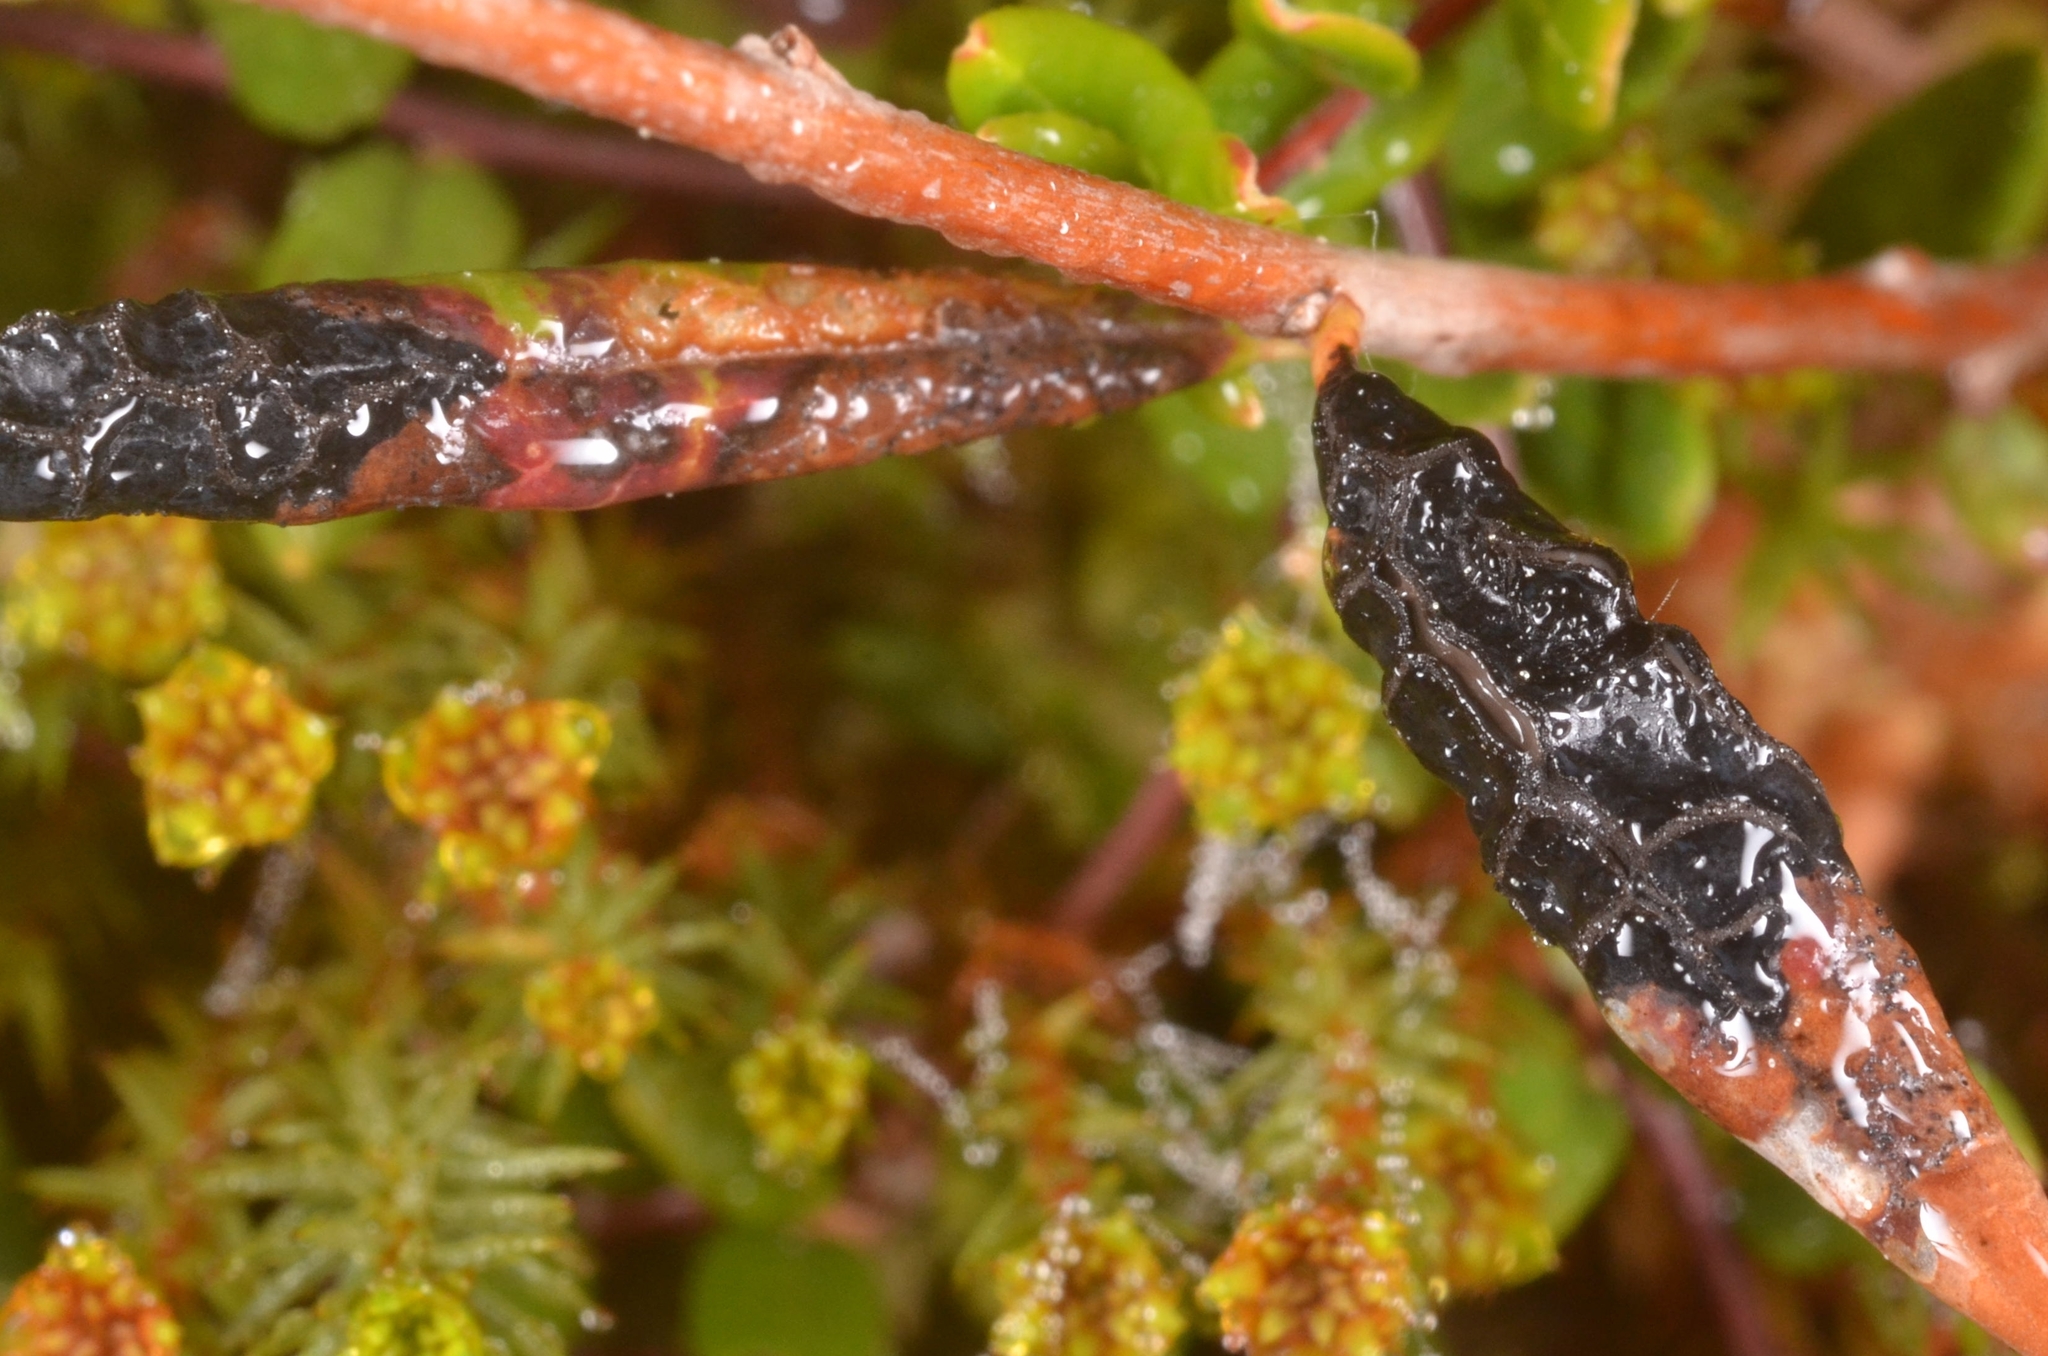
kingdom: Fungi
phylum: Ascomycota
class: Leotiomycetes
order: Rhytismatales
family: Rhytismataceae
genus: Rhytisma
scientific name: Rhytisma andromedae
